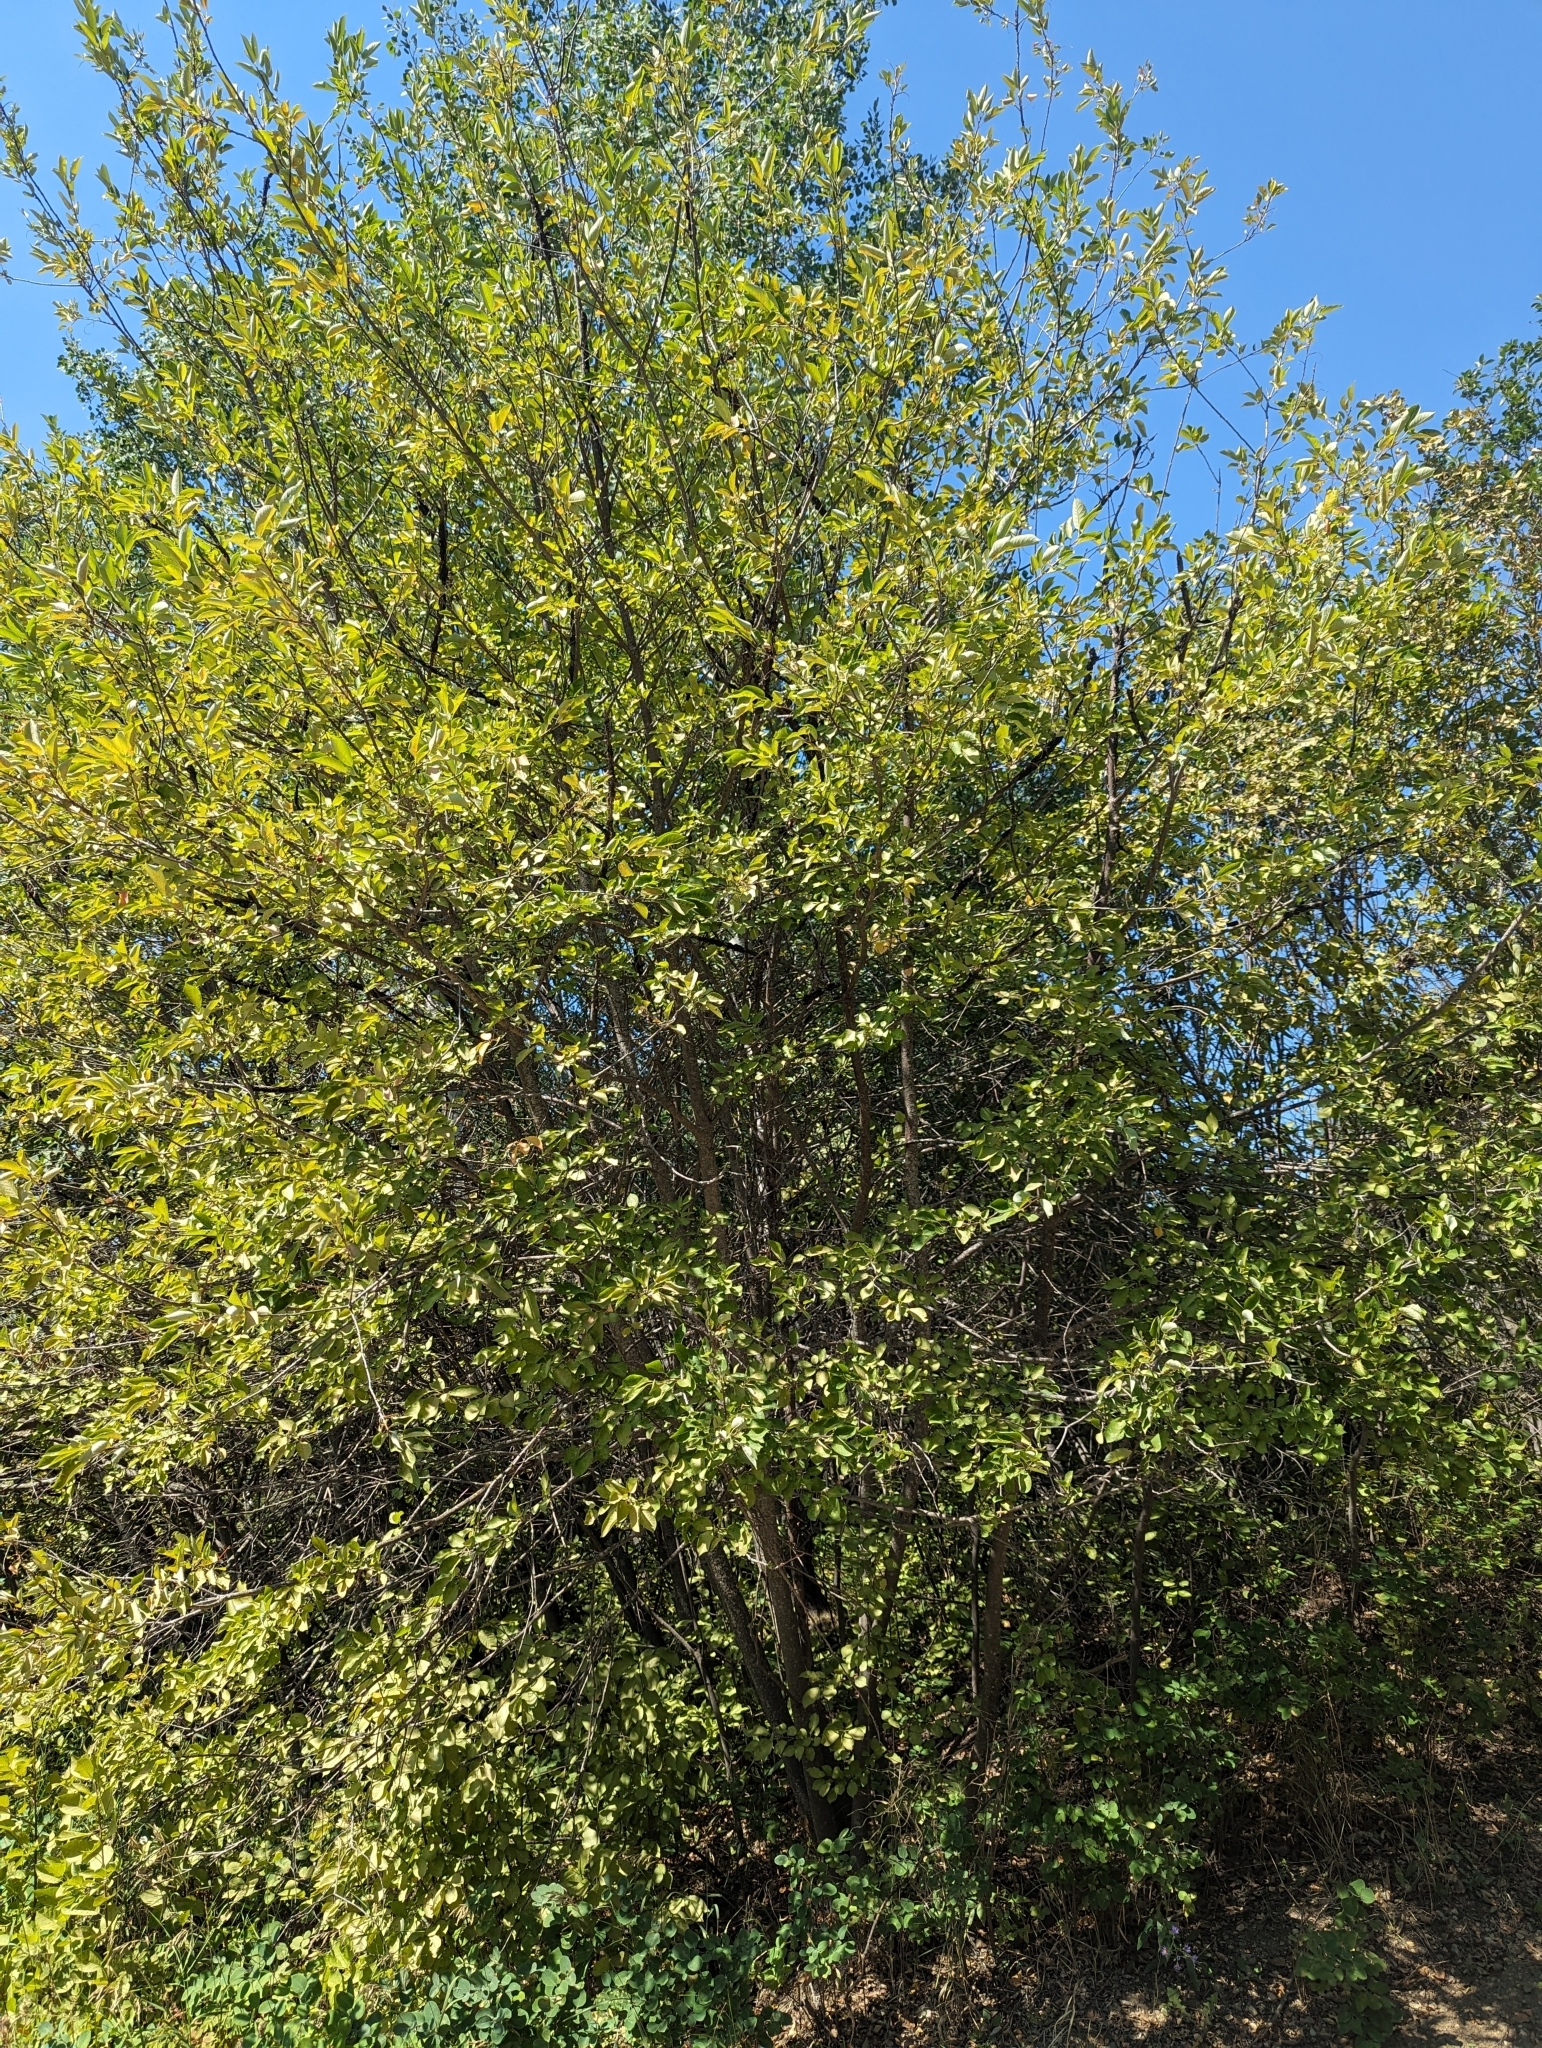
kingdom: Plantae
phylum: Tracheophyta
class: Magnoliopsida
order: Rosales
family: Rosaceae
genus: Prunus
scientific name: Prunus virginiana
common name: Chokecherry
